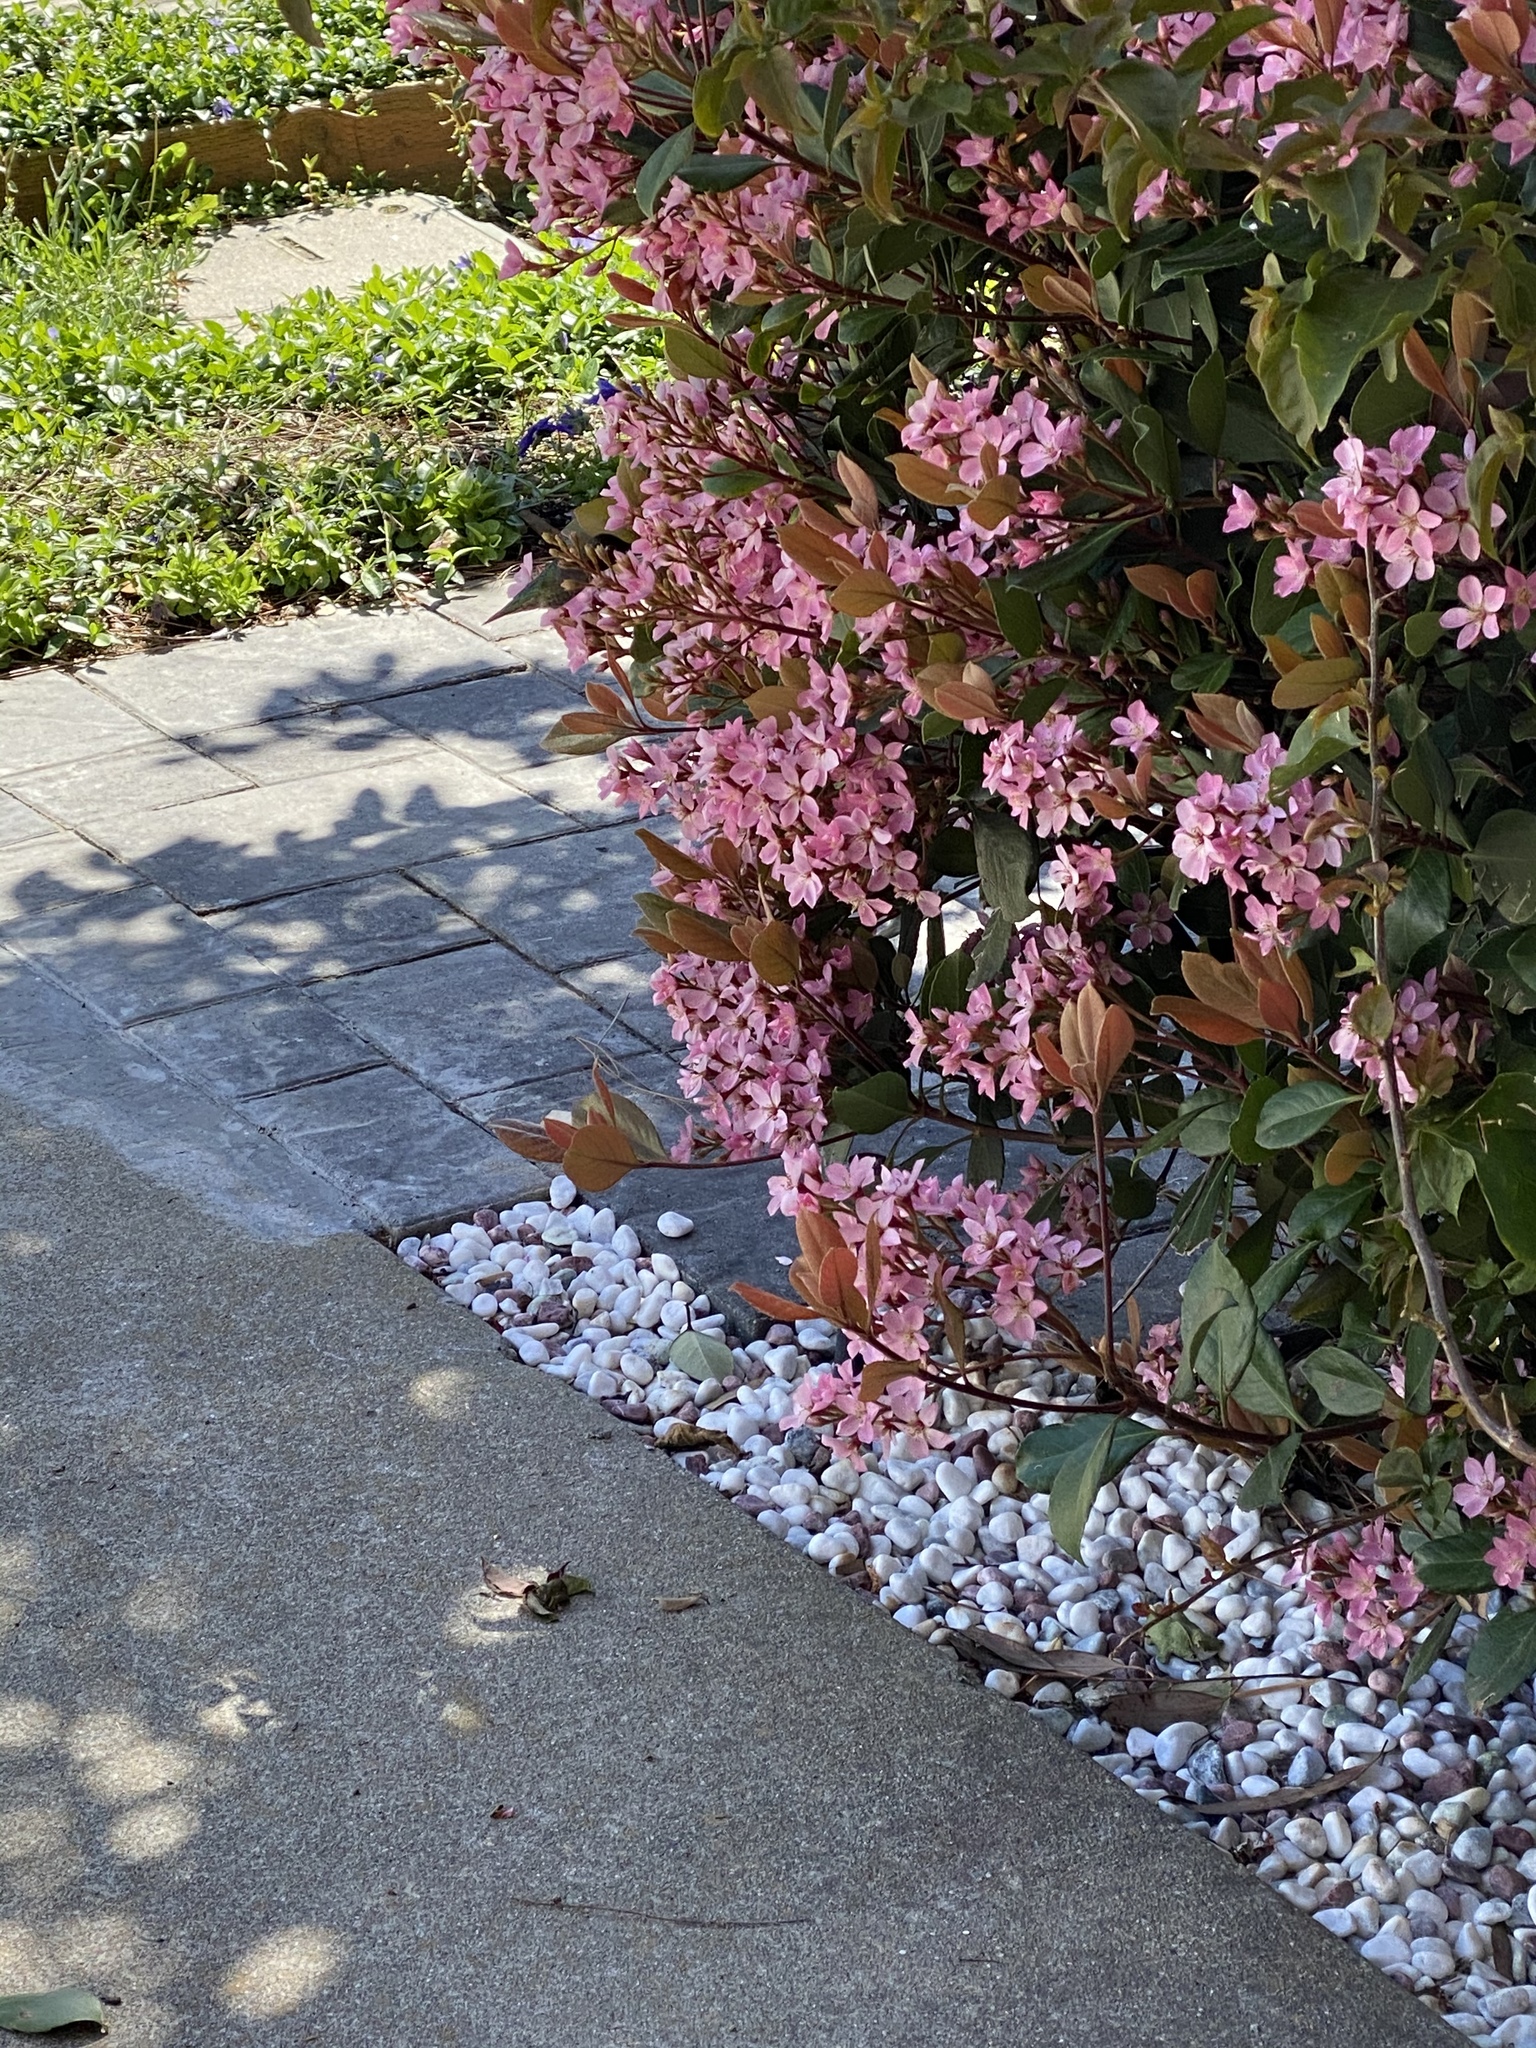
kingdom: Animalia
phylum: Chordata
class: Aves
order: Apodiformes
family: Trochilidae
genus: Calypte
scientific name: Calypte anna
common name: Anna's hummingbird
